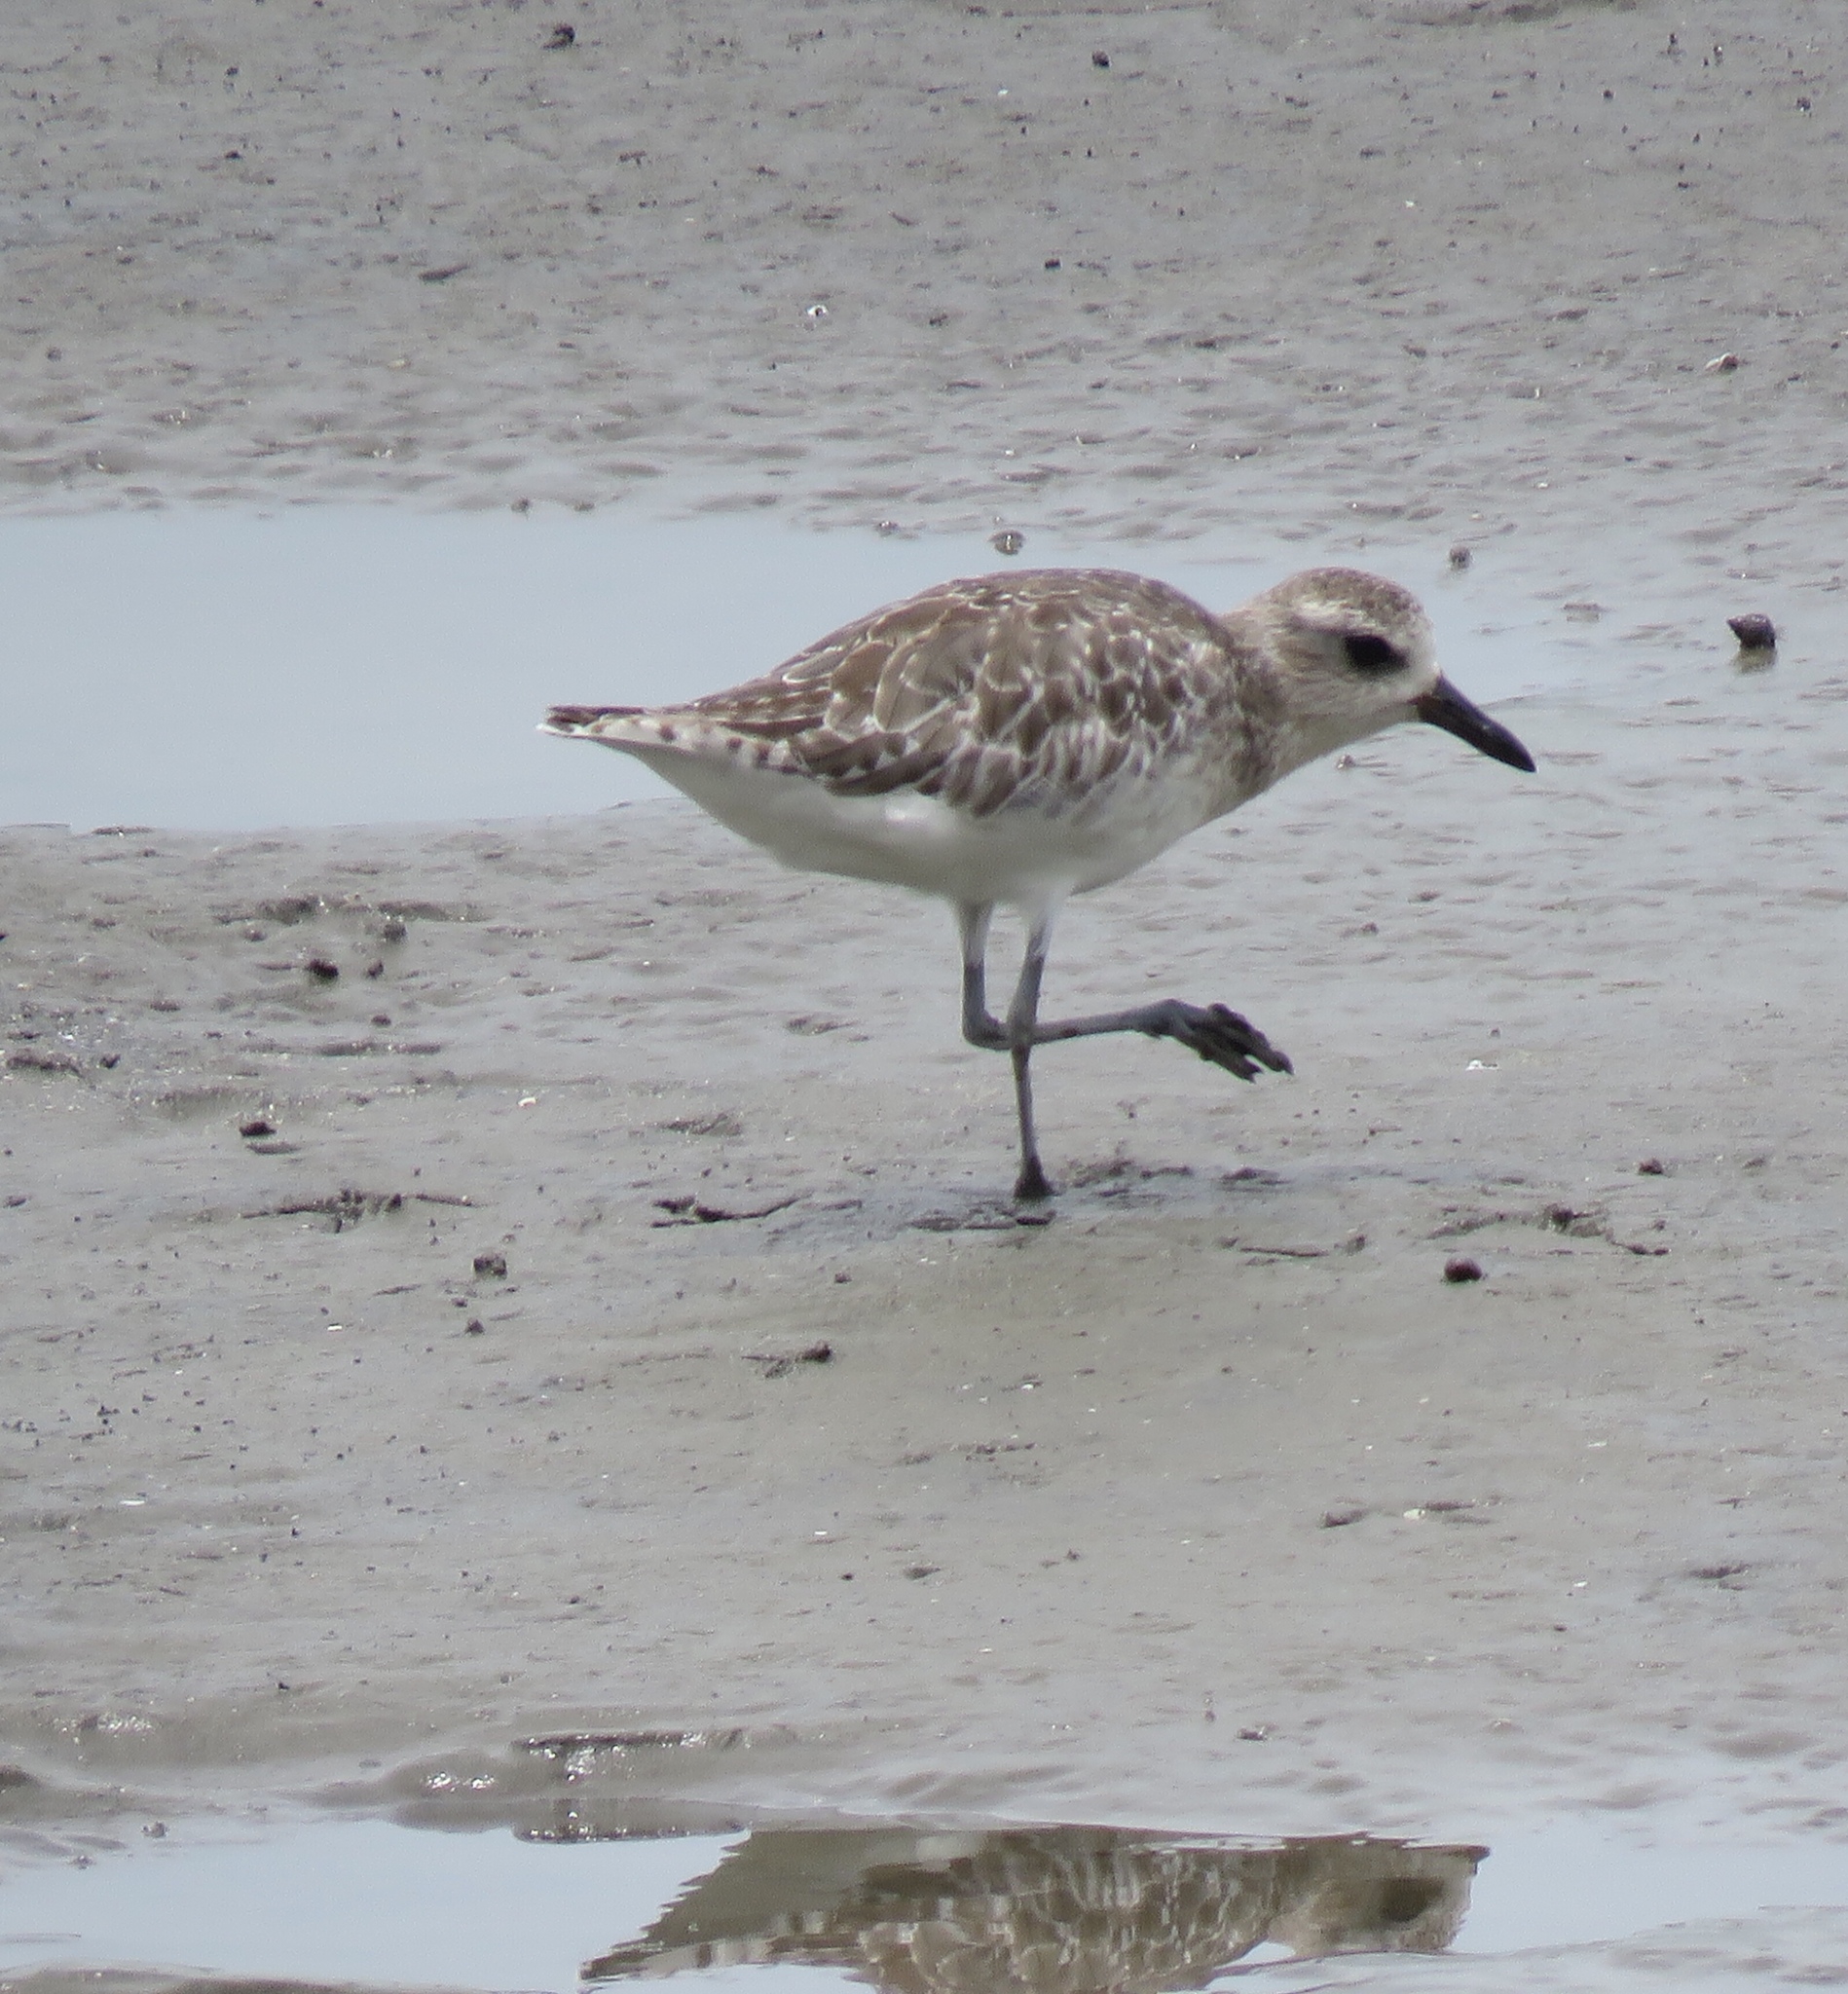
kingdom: Animalia
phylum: Chordata
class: Aves
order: Charadriiformes
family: Charadriidae
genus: Pluvialis
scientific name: Pluvialis squatarola
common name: Grey plover
